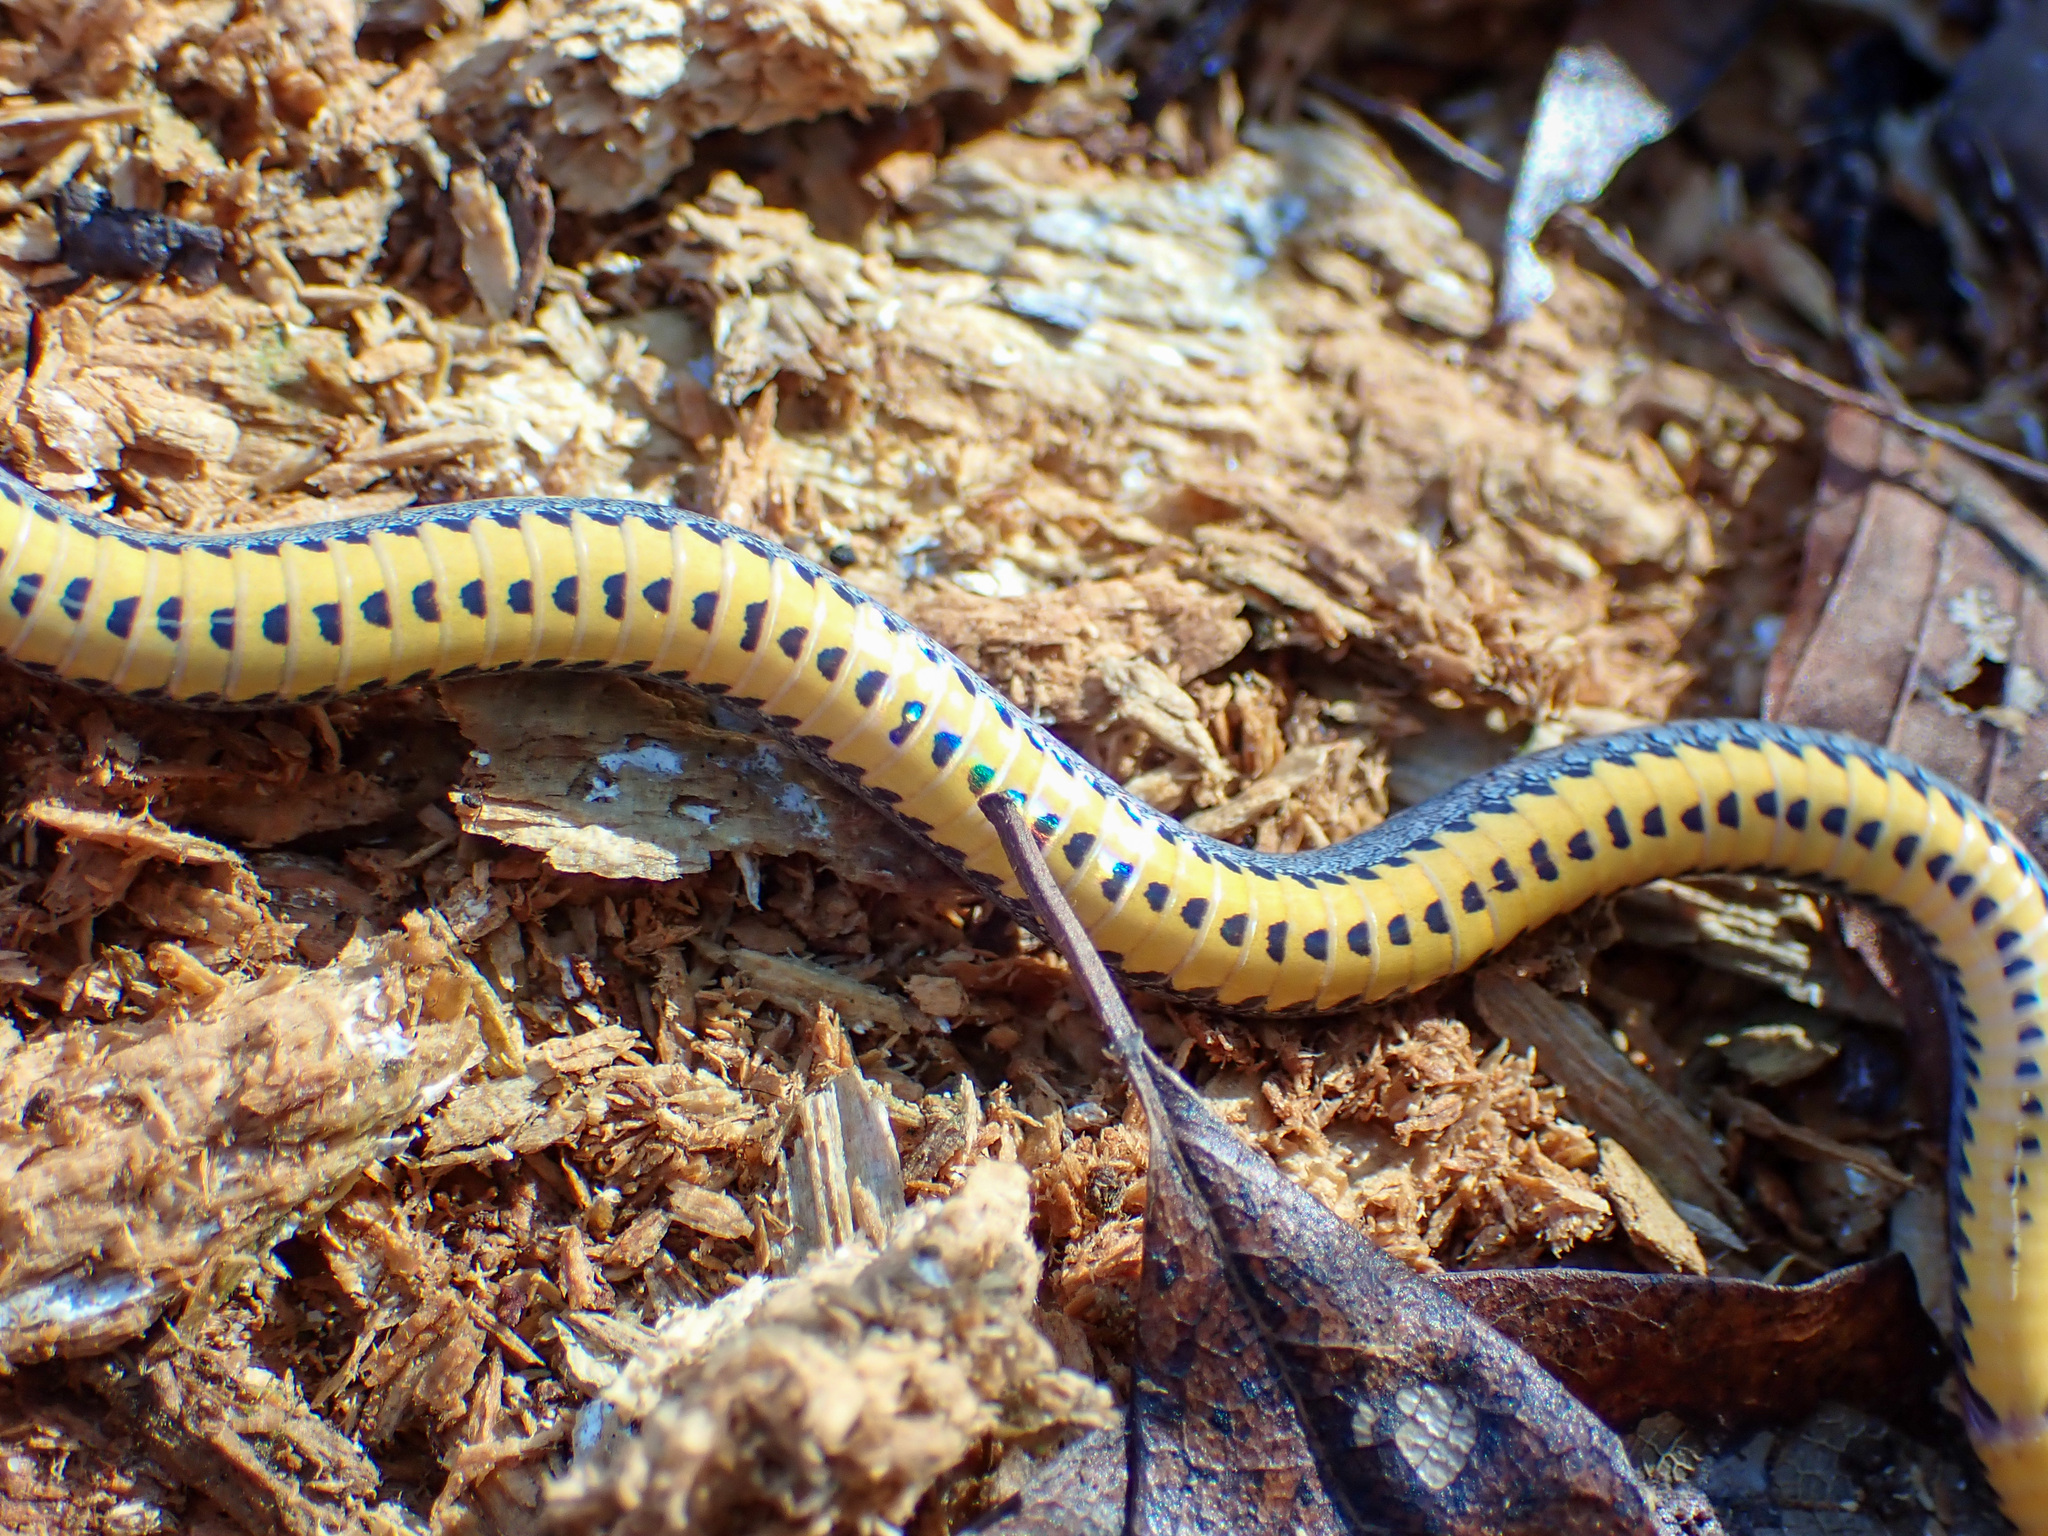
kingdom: Animalia
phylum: Chordata
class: Squamata
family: Colubridae
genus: Diadophis
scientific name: Diadophis punctatus
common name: Ringneck snake
